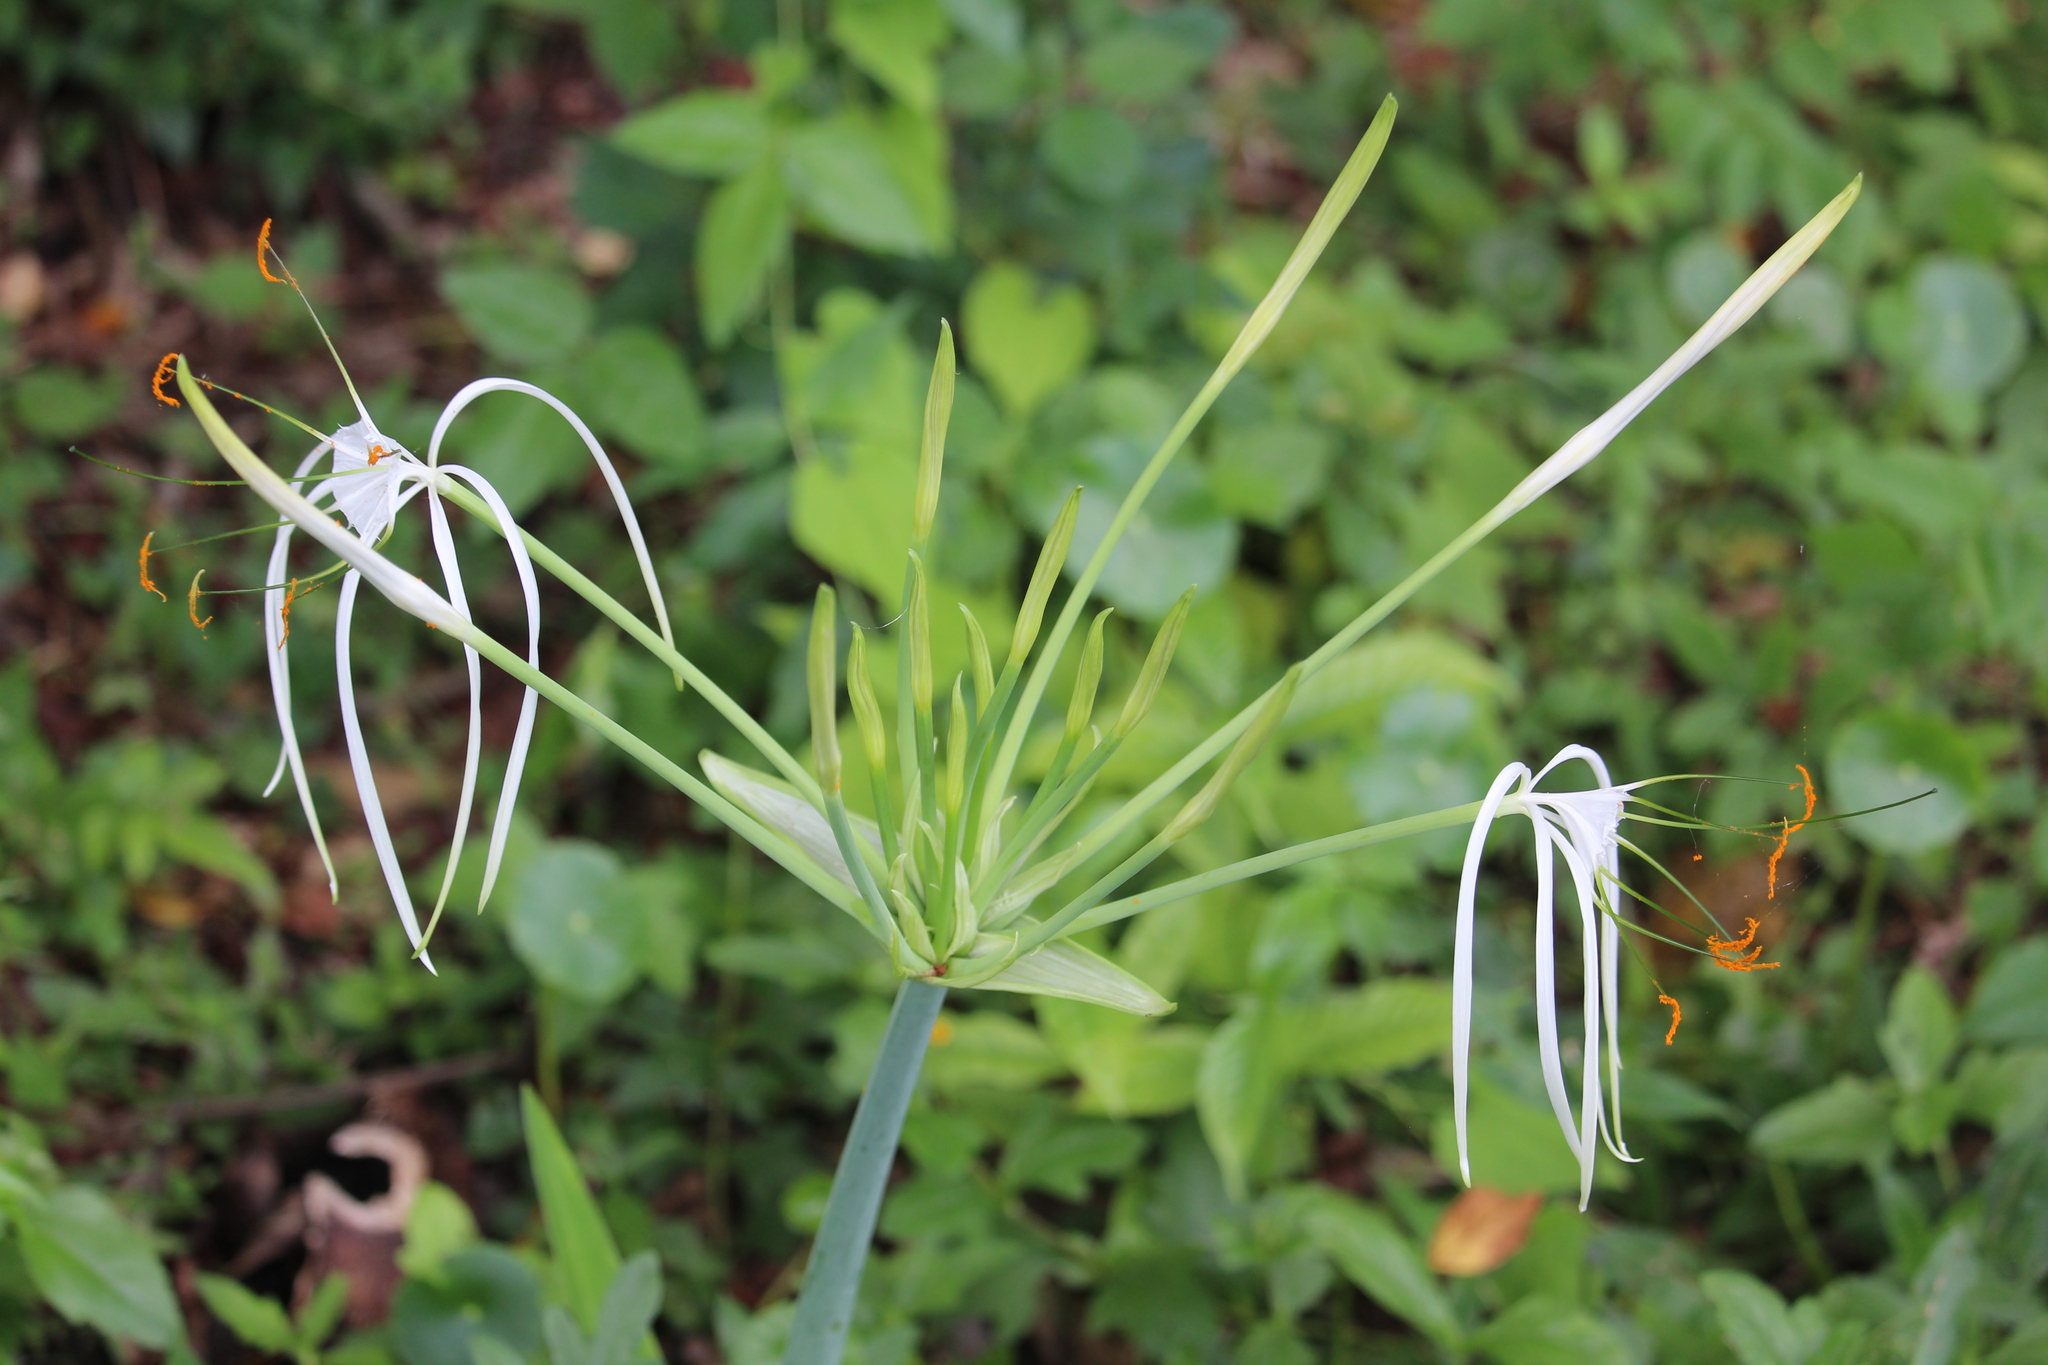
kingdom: Plantae
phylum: Tracheophyta
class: Liliopsida
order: Asparagales
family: Amaryllidaceae
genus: Hymenocallis
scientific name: Hymenocallis littoralis
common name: Beach spiderlily
